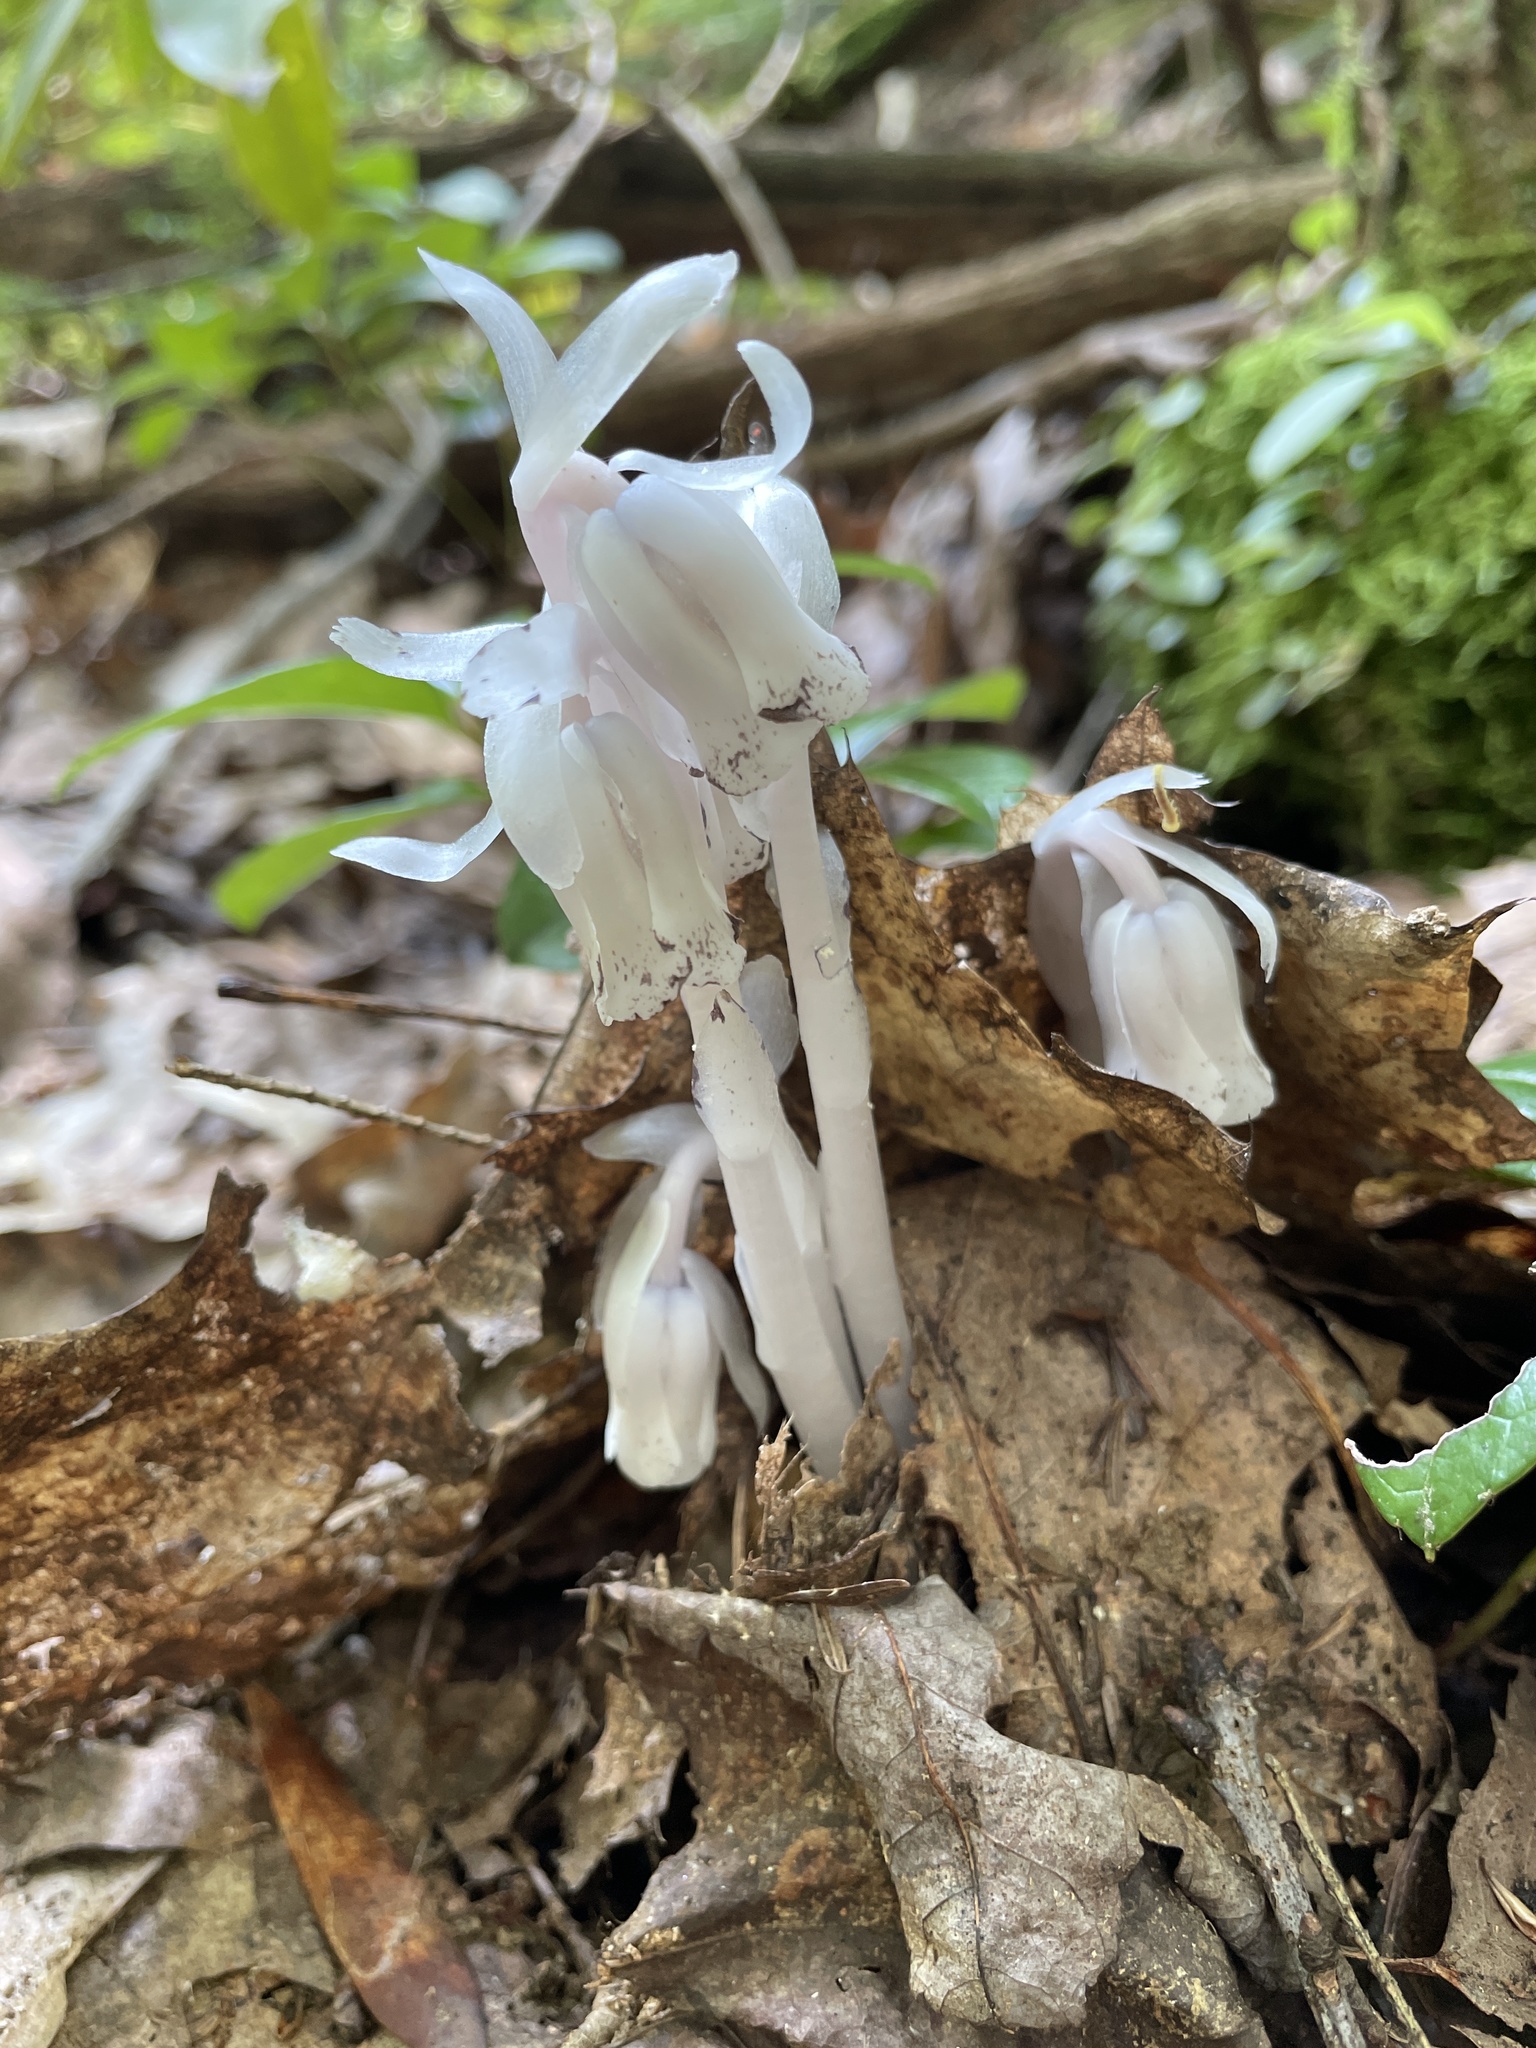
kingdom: Plantae
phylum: Tracheophyta
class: Magnoliopsida
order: Ericales
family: Ericaceae
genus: Monotropa
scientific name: Monotropa uniflora
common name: Convulsion root
